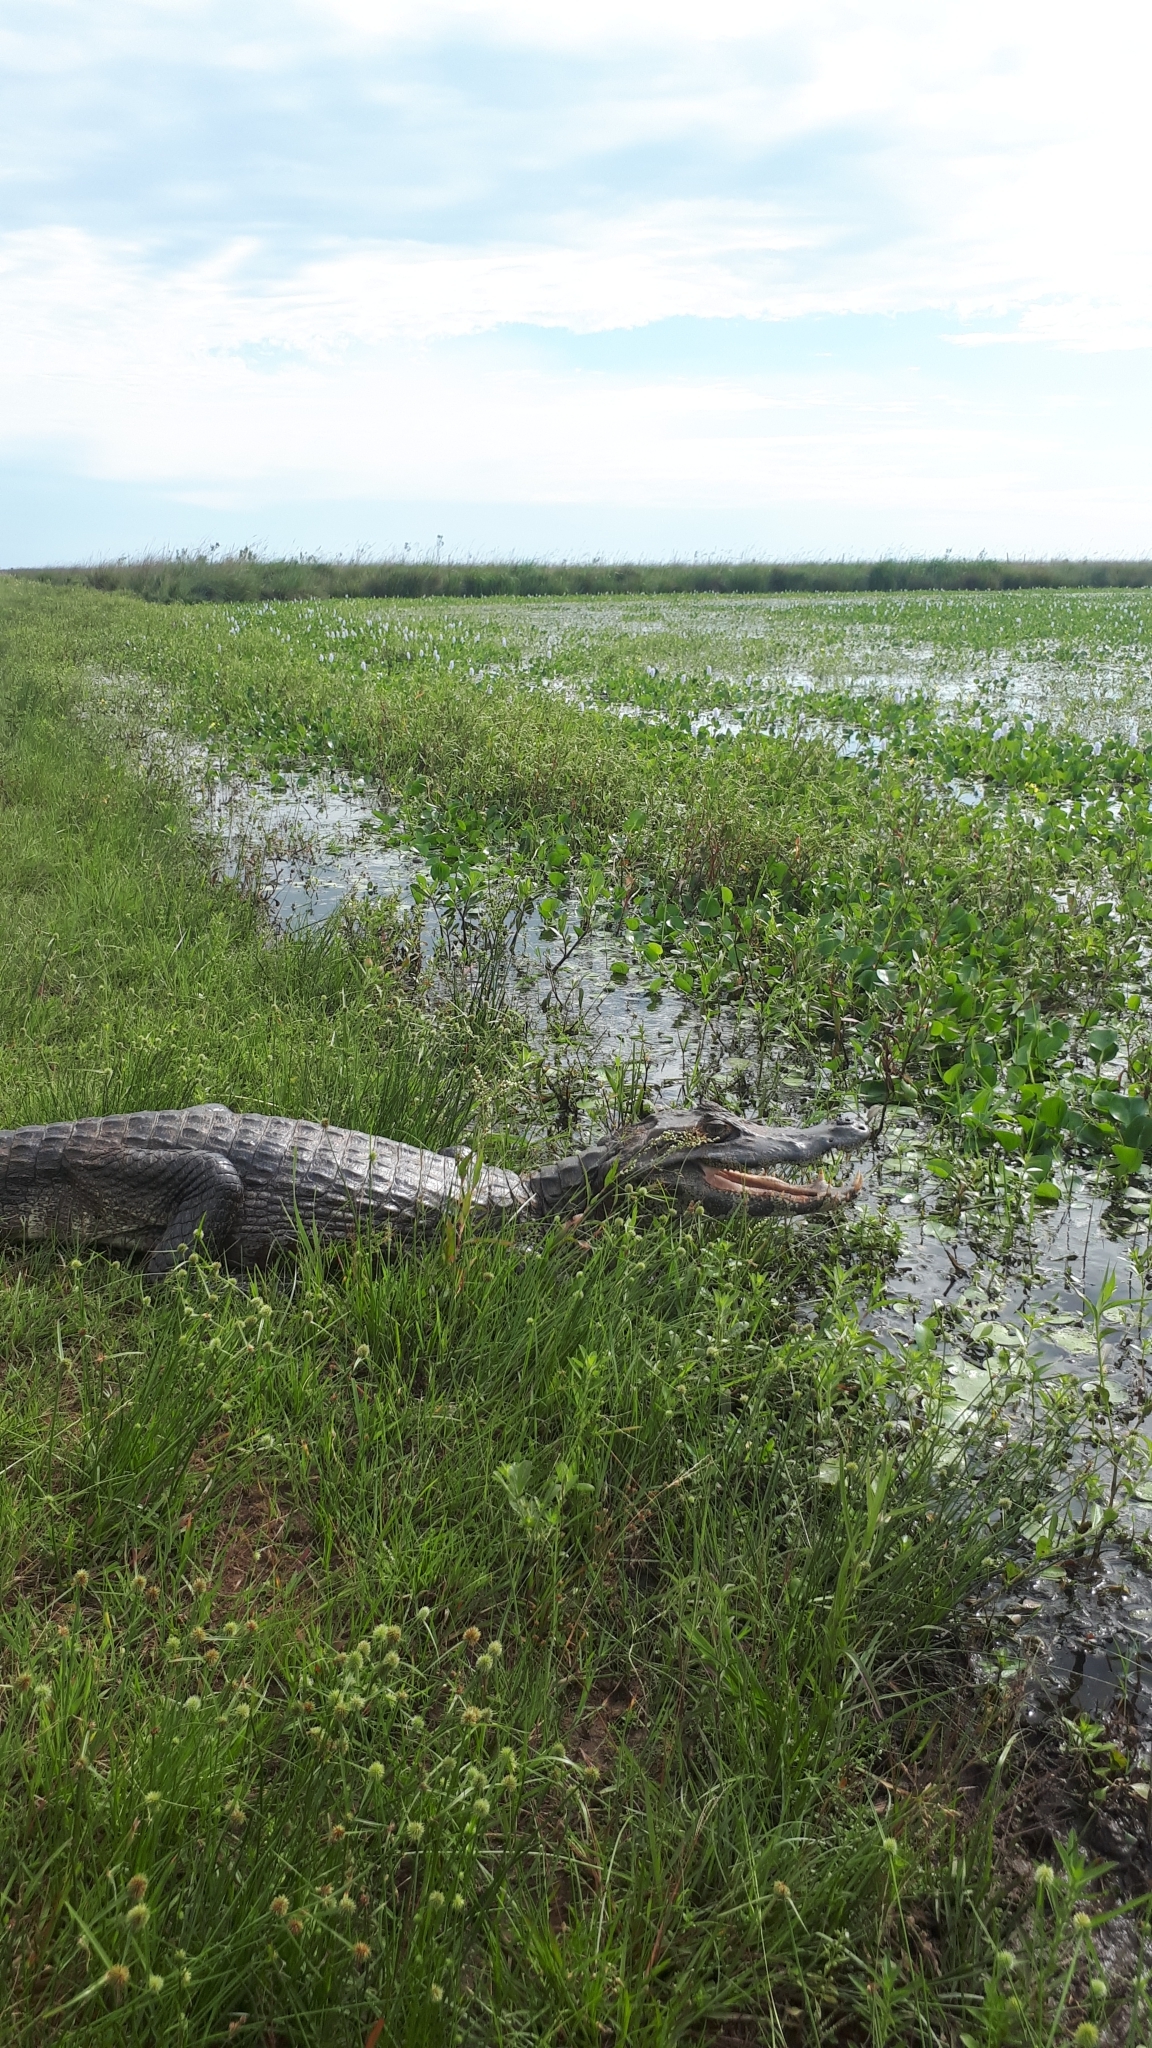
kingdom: Animalia
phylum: Chordata
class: Crocodylia
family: Alligatoridae
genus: Caiman
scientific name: Caiman yacare
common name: Yacare caiman
